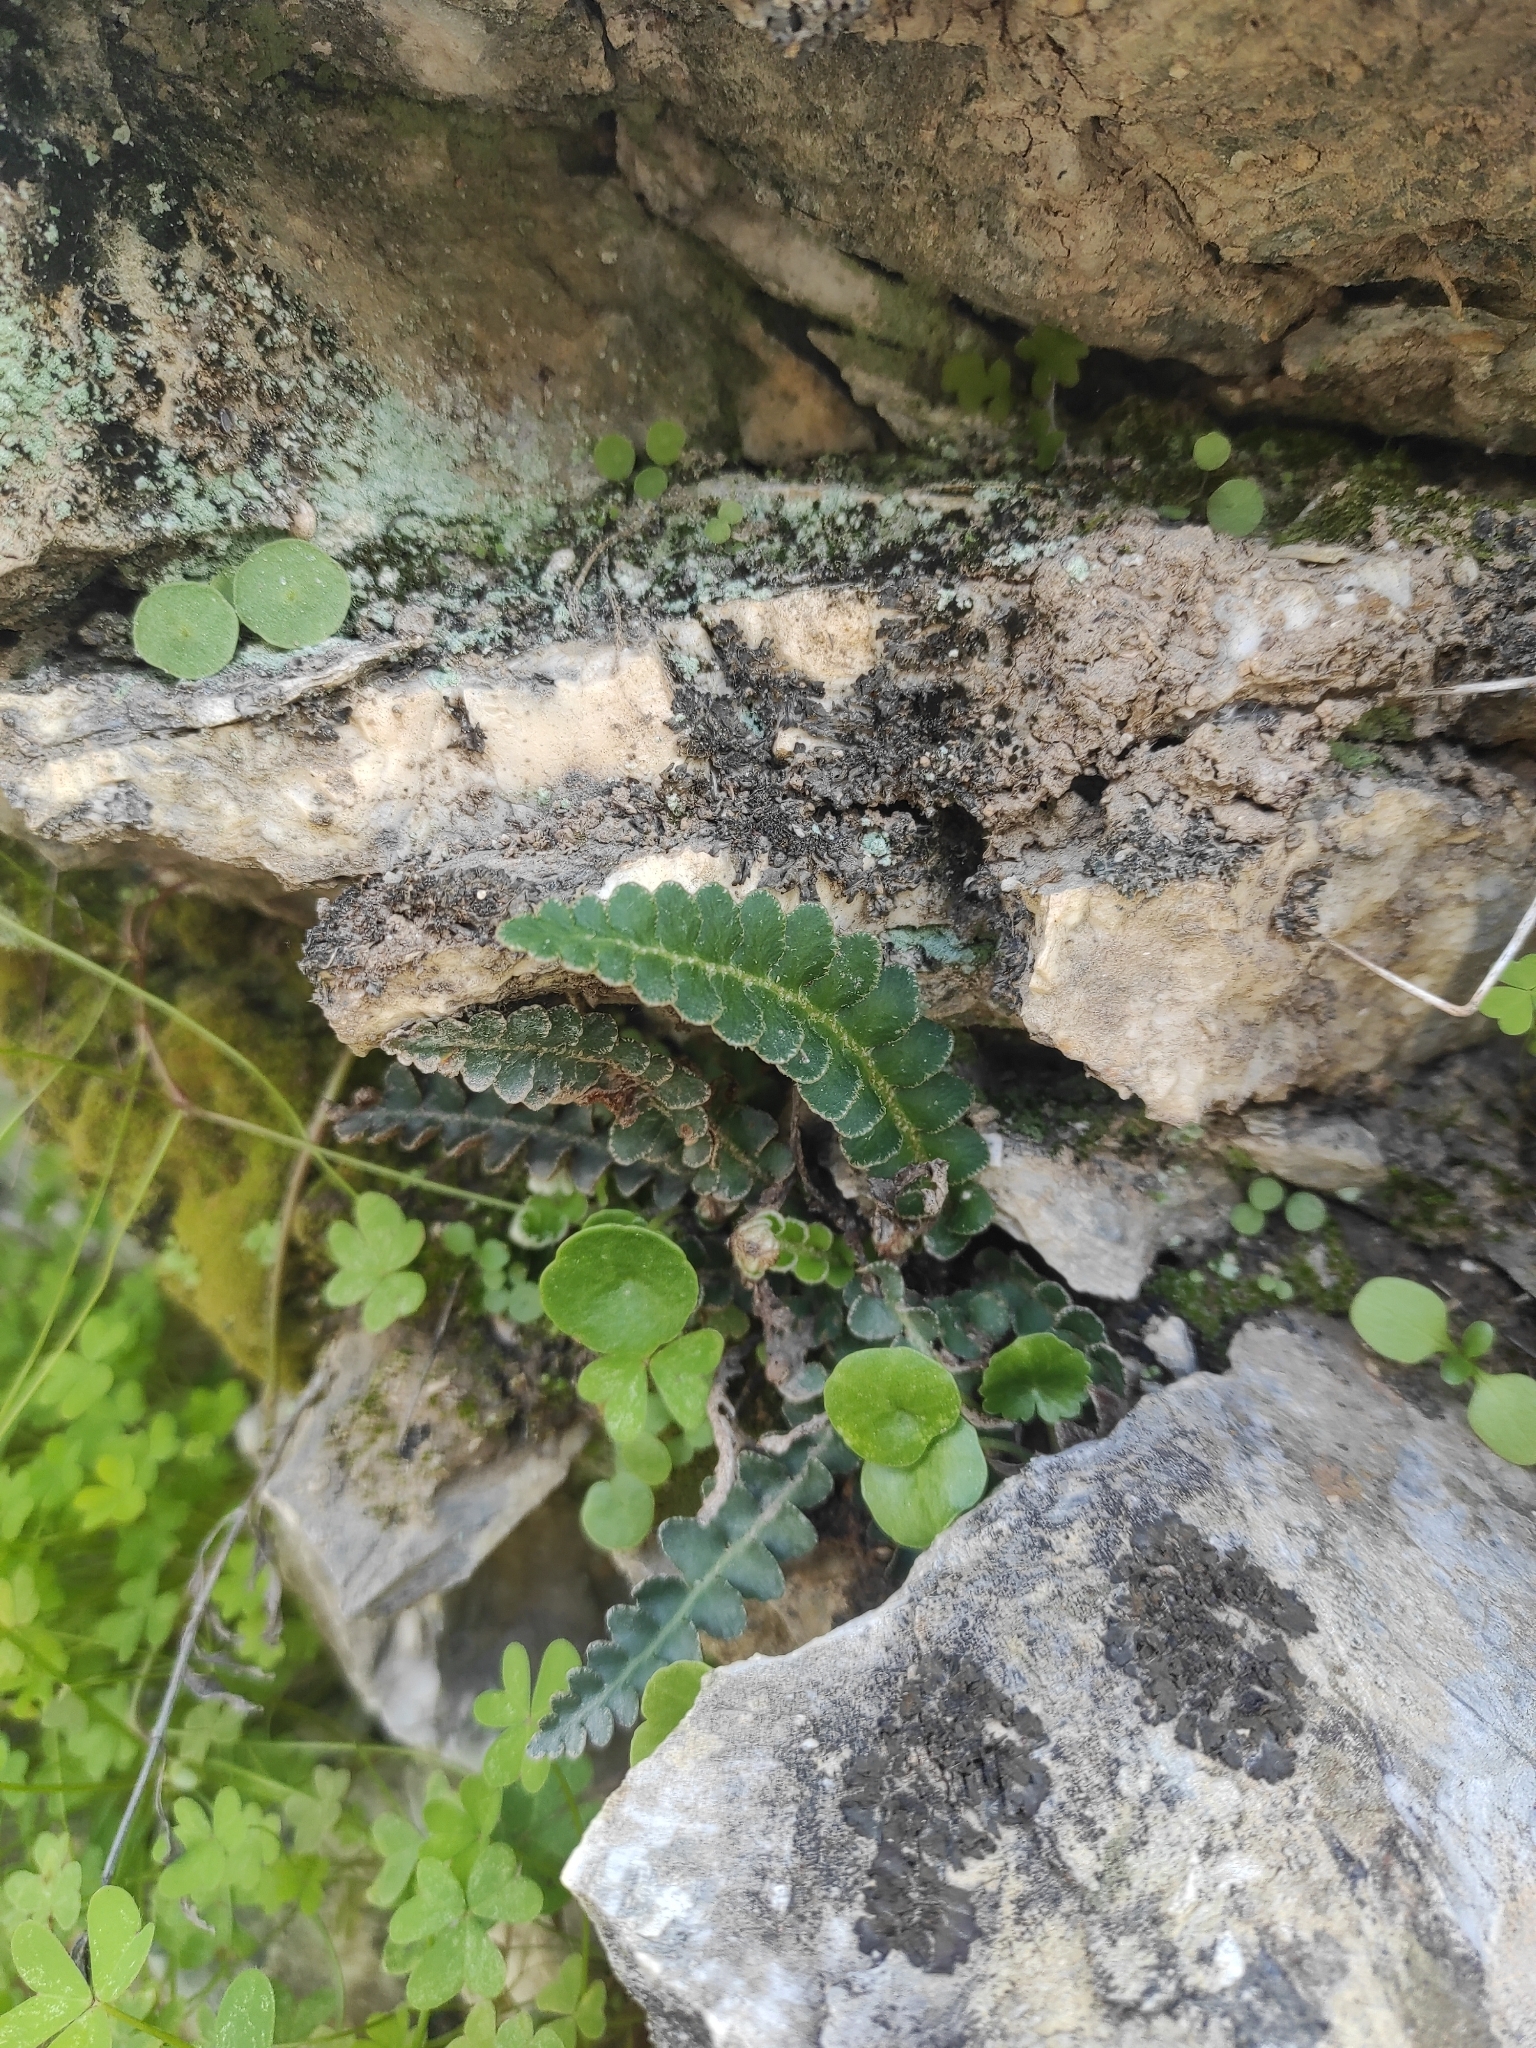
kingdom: Plantae
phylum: Tracheophyta
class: Polypodiopsida
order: Polypodiales
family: Aspleniaceae
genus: Asplenium
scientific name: Asplenium ceterach
